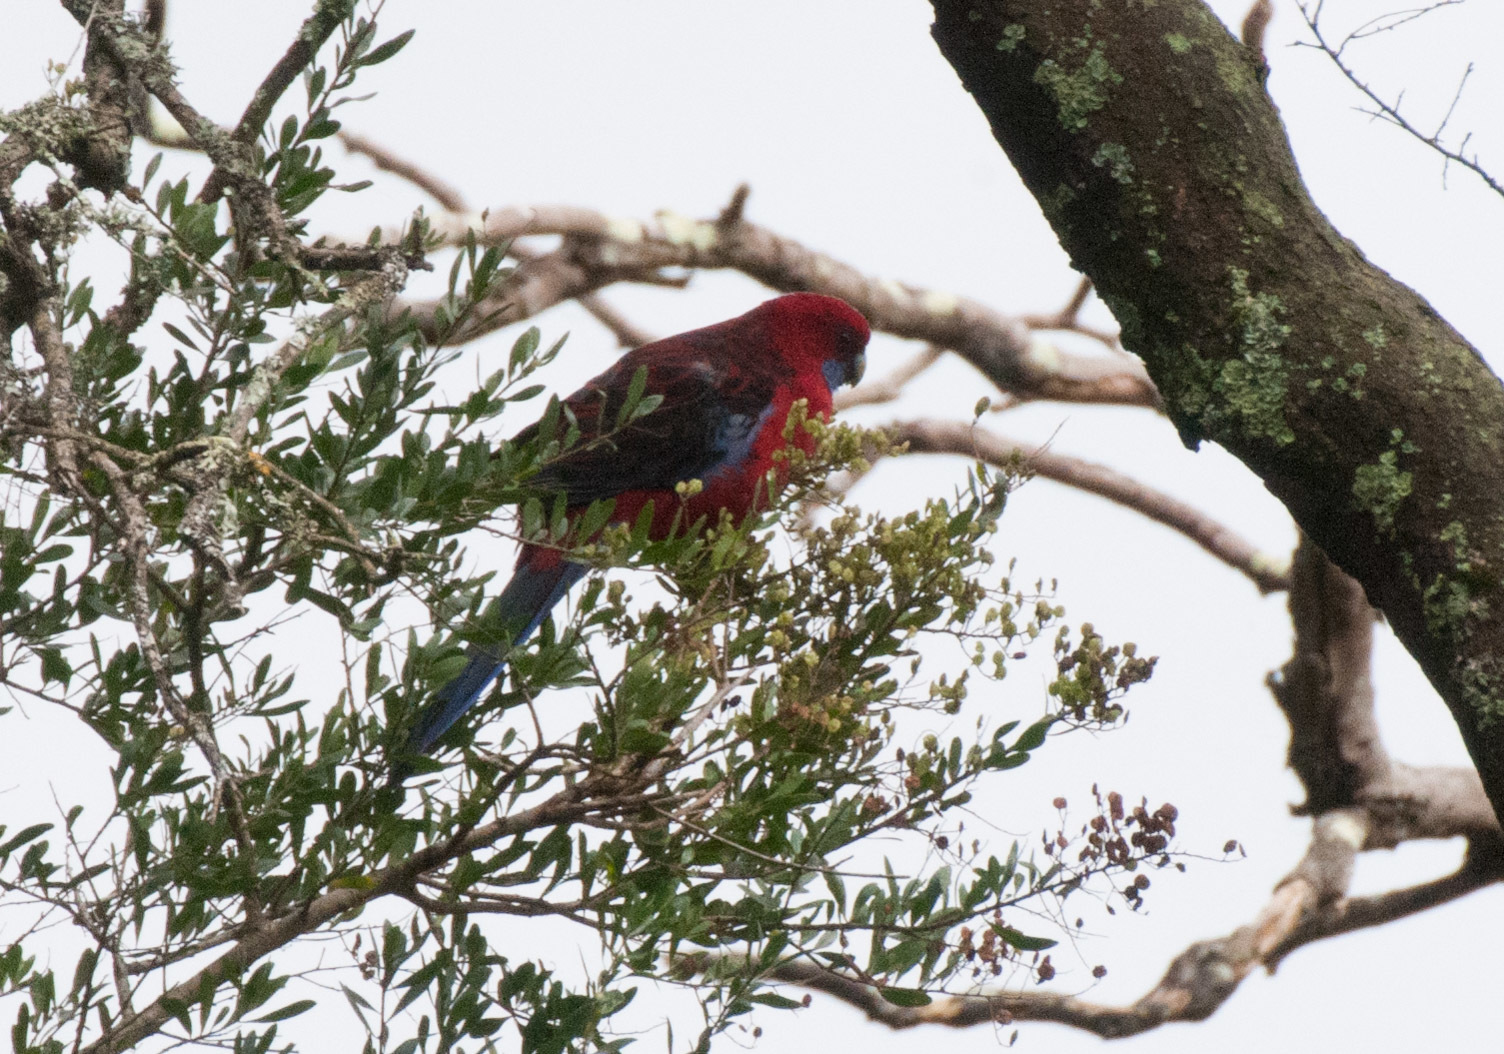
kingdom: Animalia
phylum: Chordata
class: Aves
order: Psittaciformes
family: Psittacidae
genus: Platycercus
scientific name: Platycercus elegans
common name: Crimson rosella
